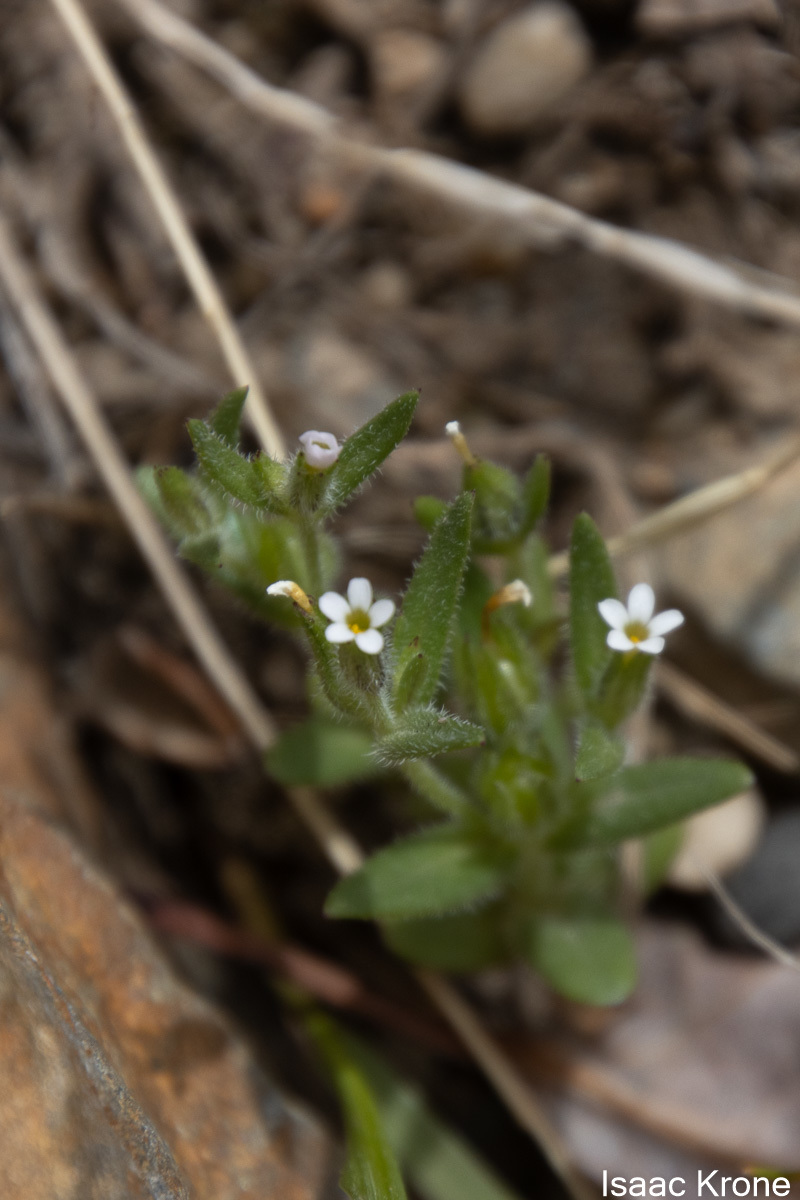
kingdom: Plantae
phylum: Tracheophyta
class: Magnoliopsida
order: Ericales
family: Polemoniaceae
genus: Phlox
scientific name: Phlox gracilis
